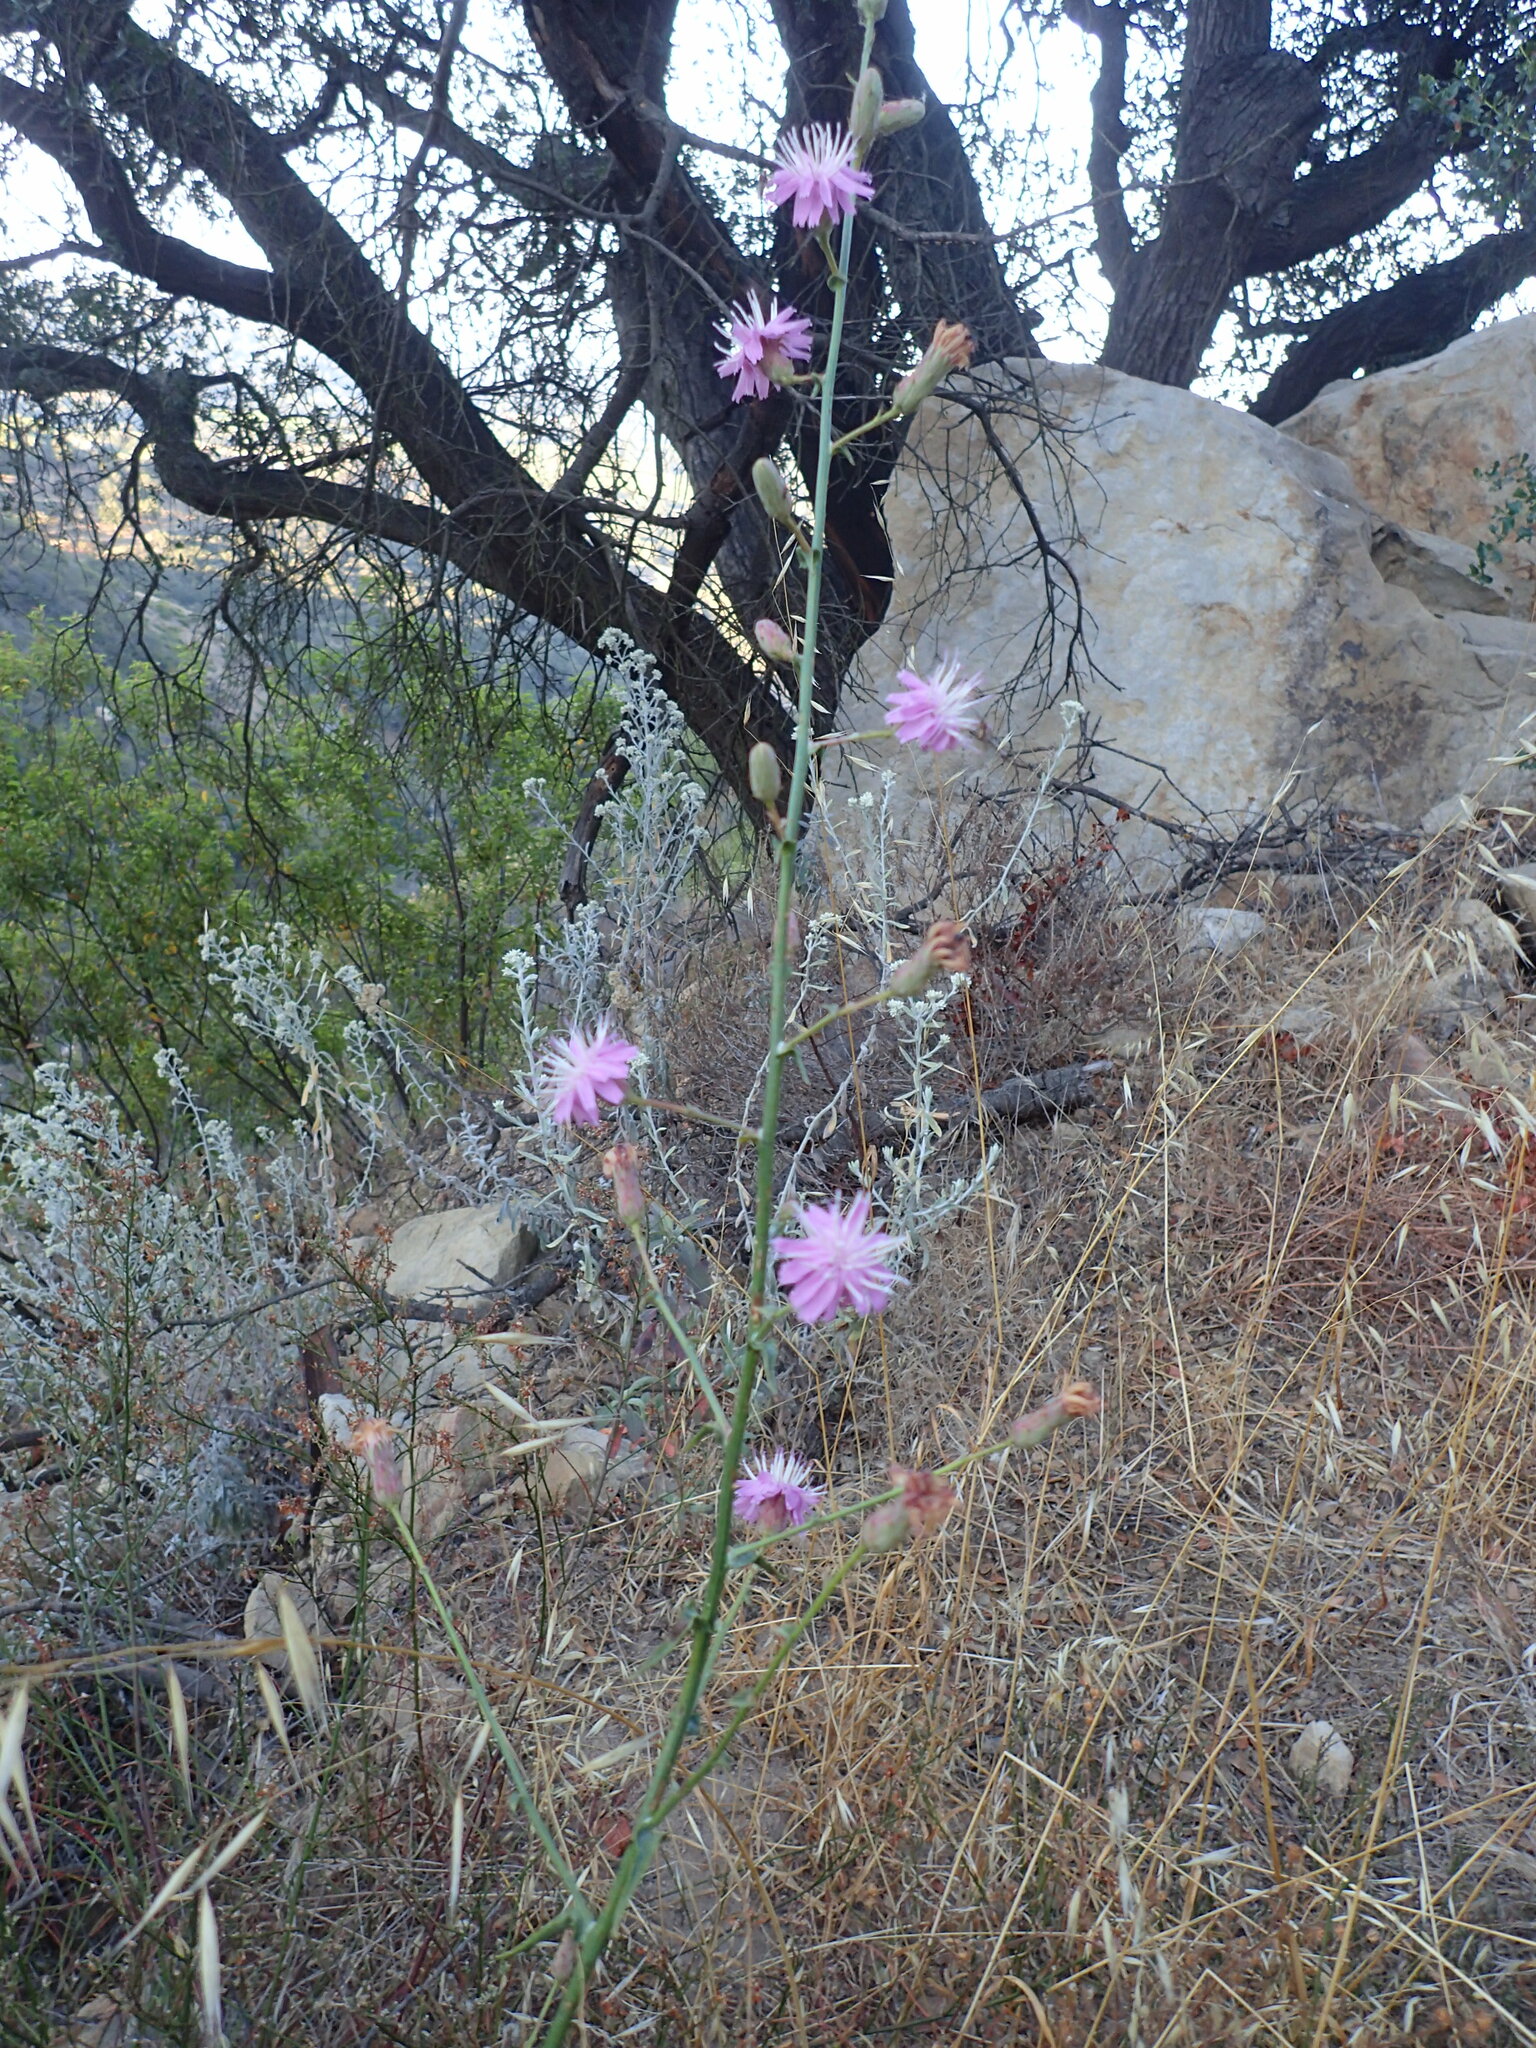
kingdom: Plantae
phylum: Tracheophyta
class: Magnoliopsida
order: Asterales
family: Asteraceae
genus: Stephanomeria
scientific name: Stephanomeria cichoriacea
